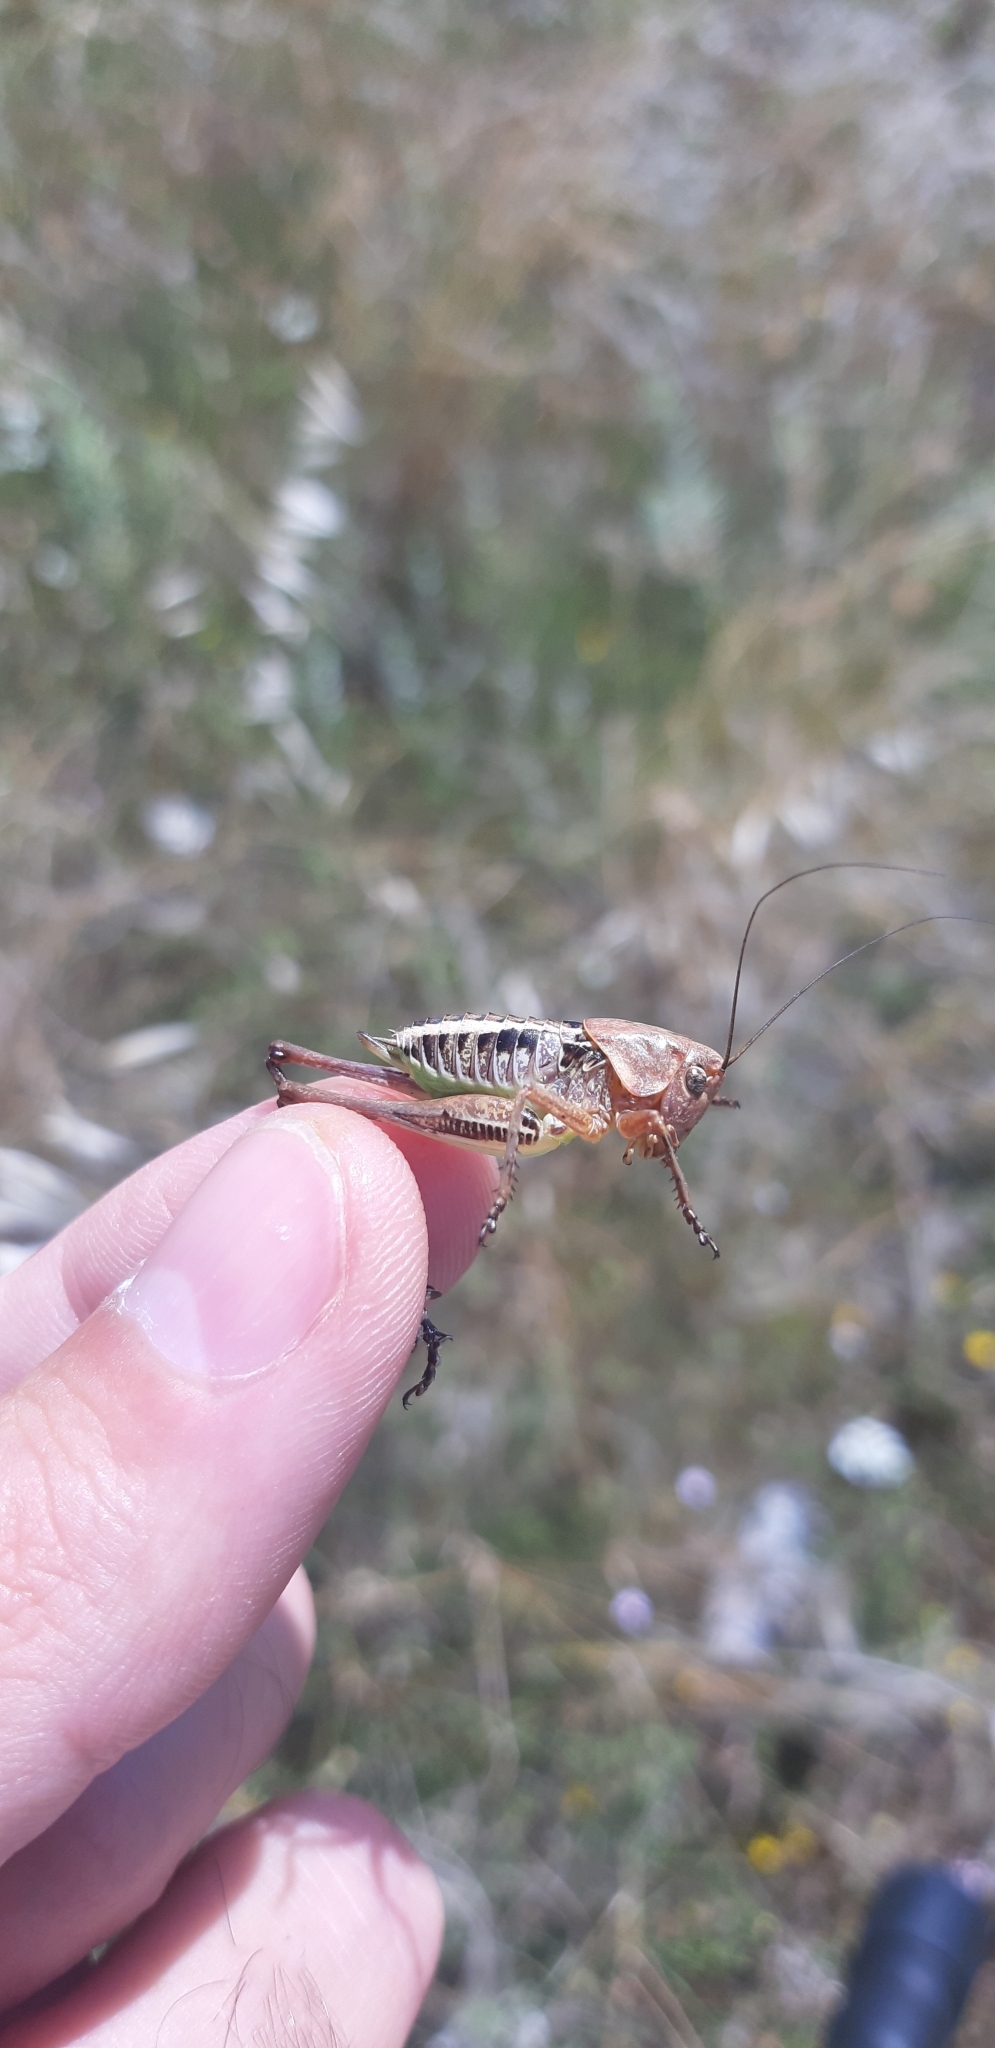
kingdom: Animalia
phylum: Arthropoda
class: Insecta
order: Orthoptera
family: Tettigoniidae
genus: Decticus
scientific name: Decticus loudoni
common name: Apulian wart-biter
